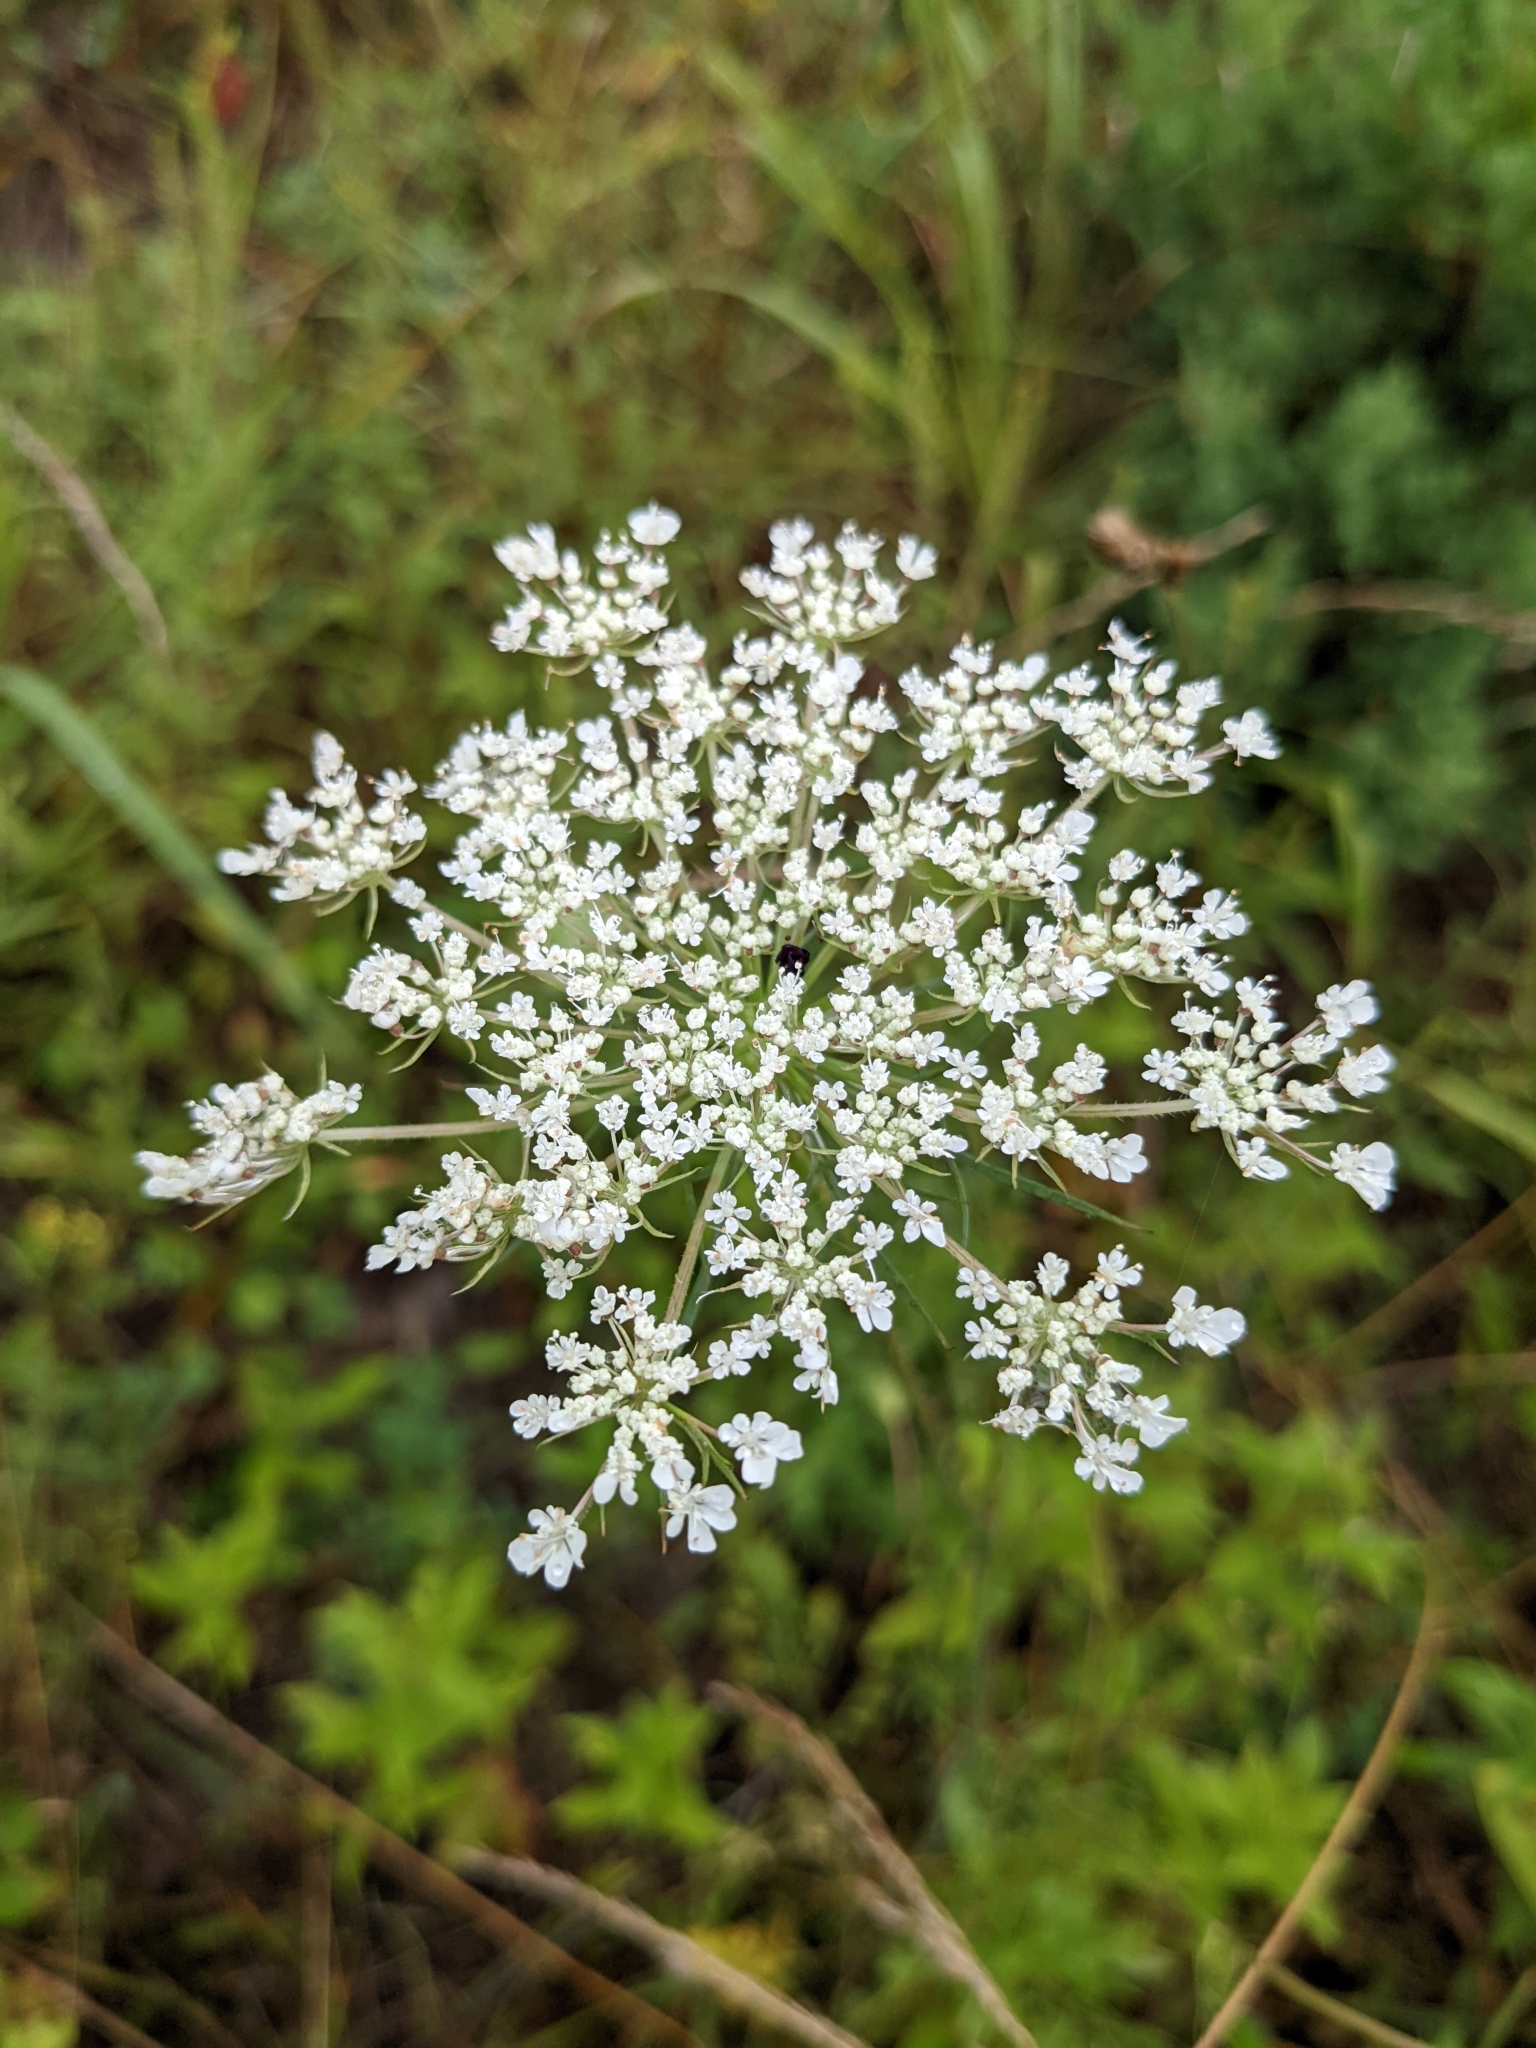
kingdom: Plantae
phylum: Tracheophyta
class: Magnoliopsida
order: Apiales
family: Apiaceae
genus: Daucus
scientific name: Daucus carota
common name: Wild carrot
